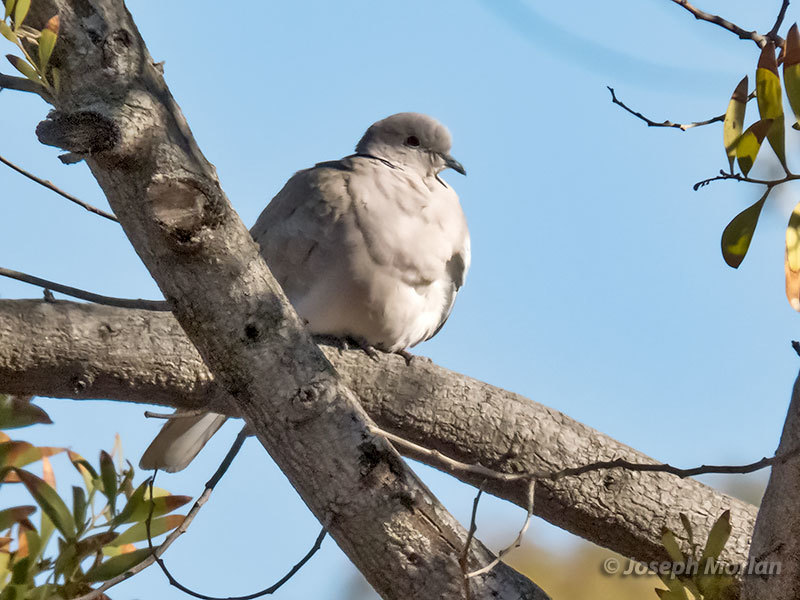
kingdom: Animalia
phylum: Chordata
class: Aves
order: Columbiformes
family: Columbidae
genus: Streptopelia
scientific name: Streptopelia decaocto
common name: Eurasian collared dove
